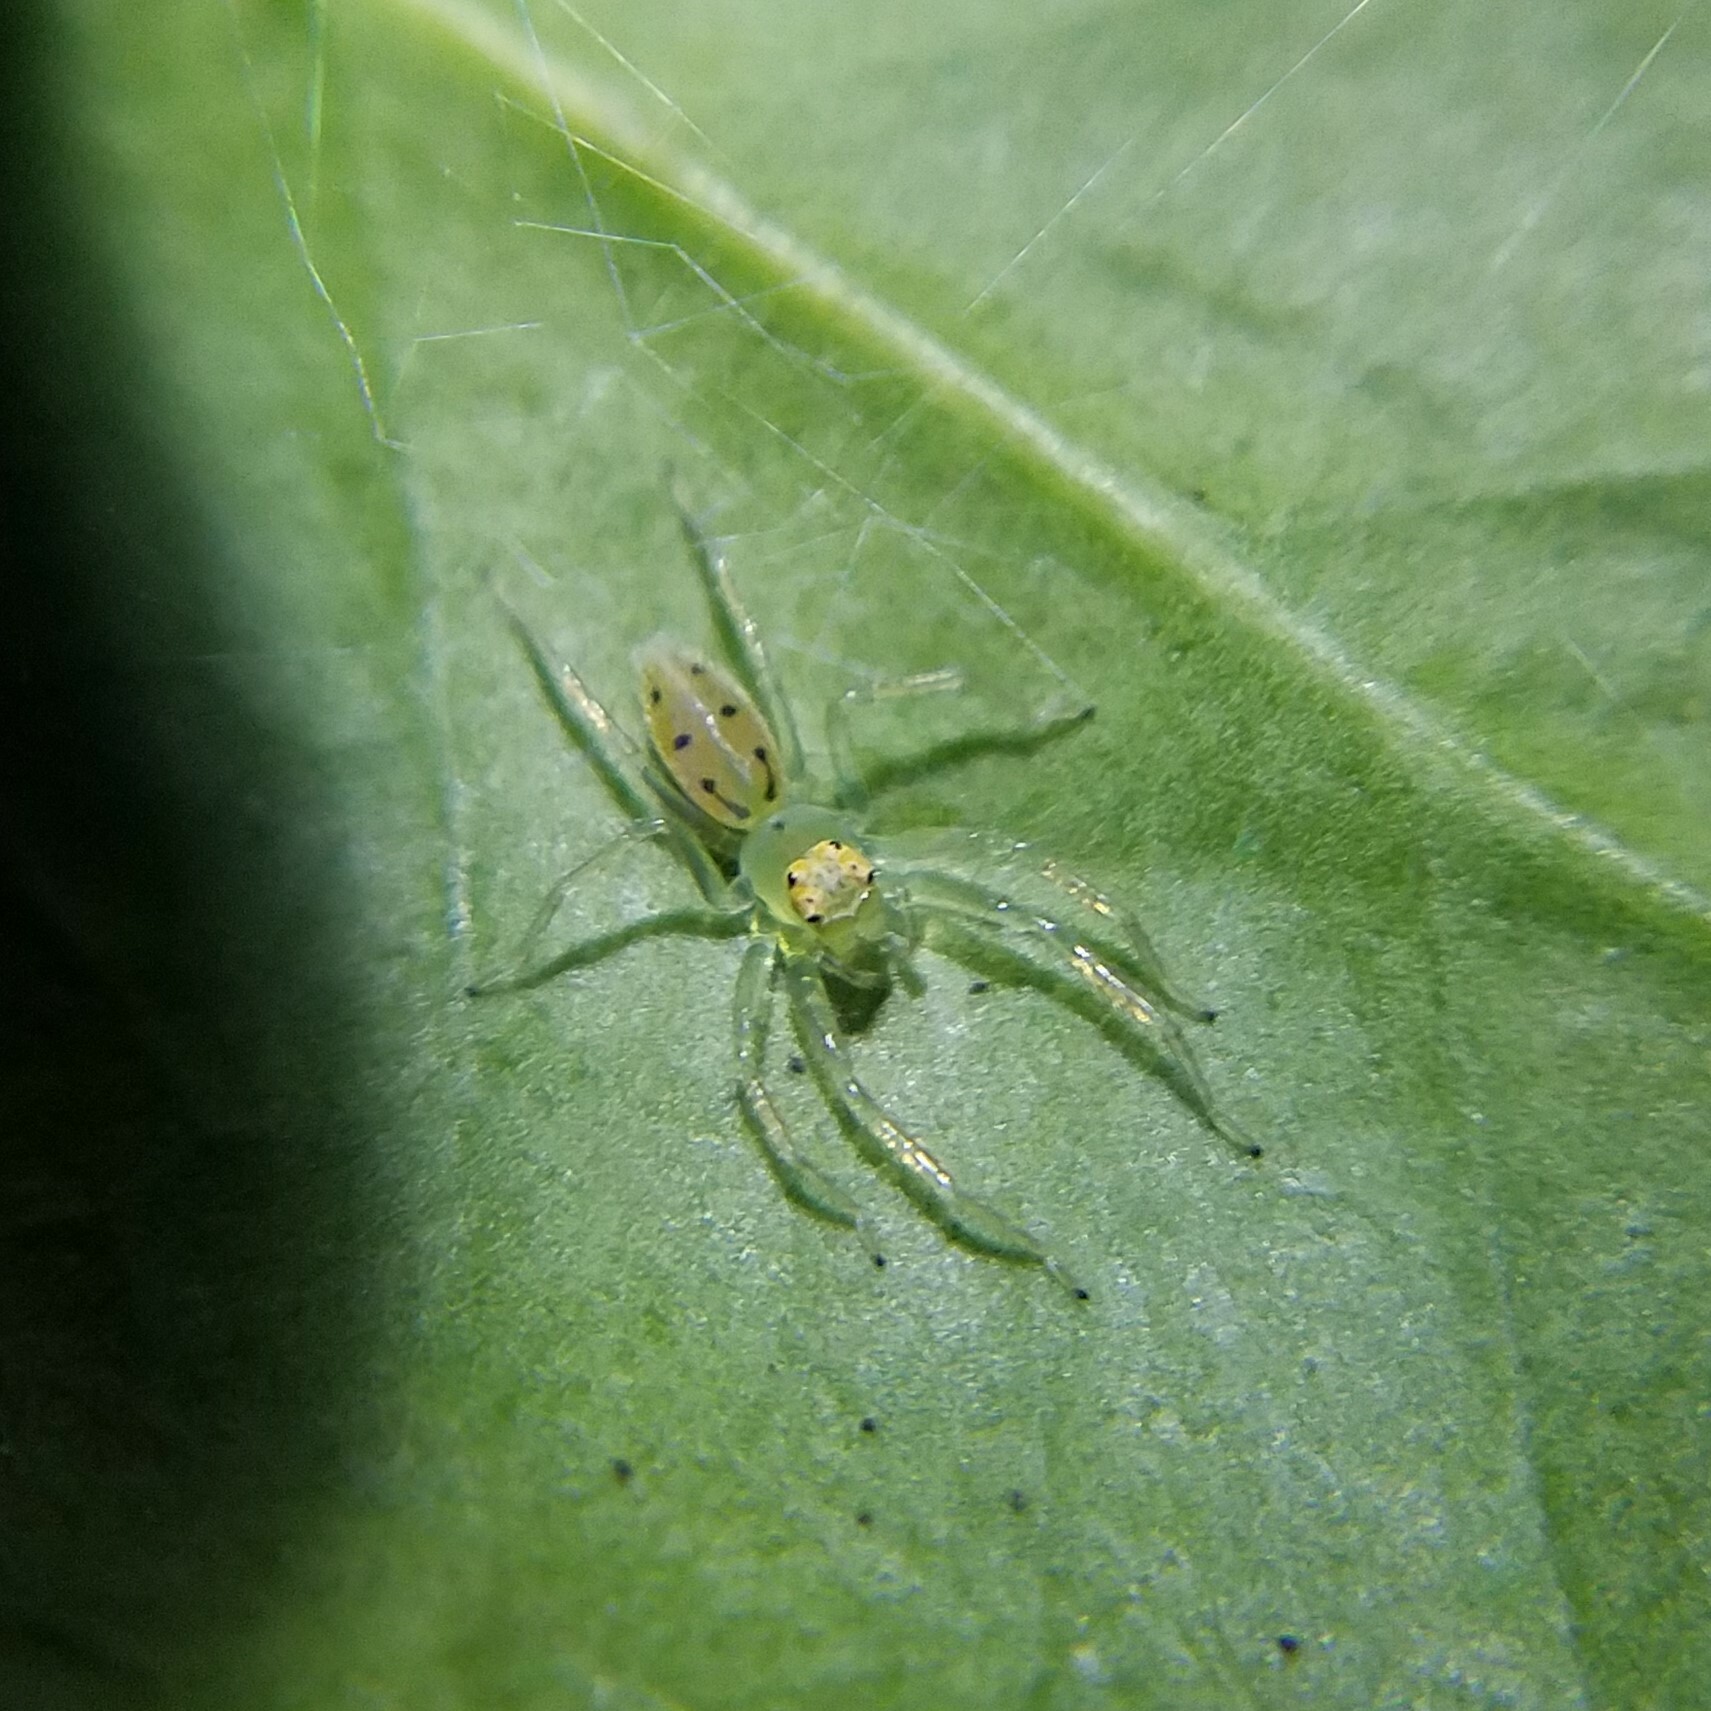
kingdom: Animalia
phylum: Arthropoda
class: Arachnida
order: Araneae
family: Salticidae
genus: Lyssomanes
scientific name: Lyssomanes viridis
